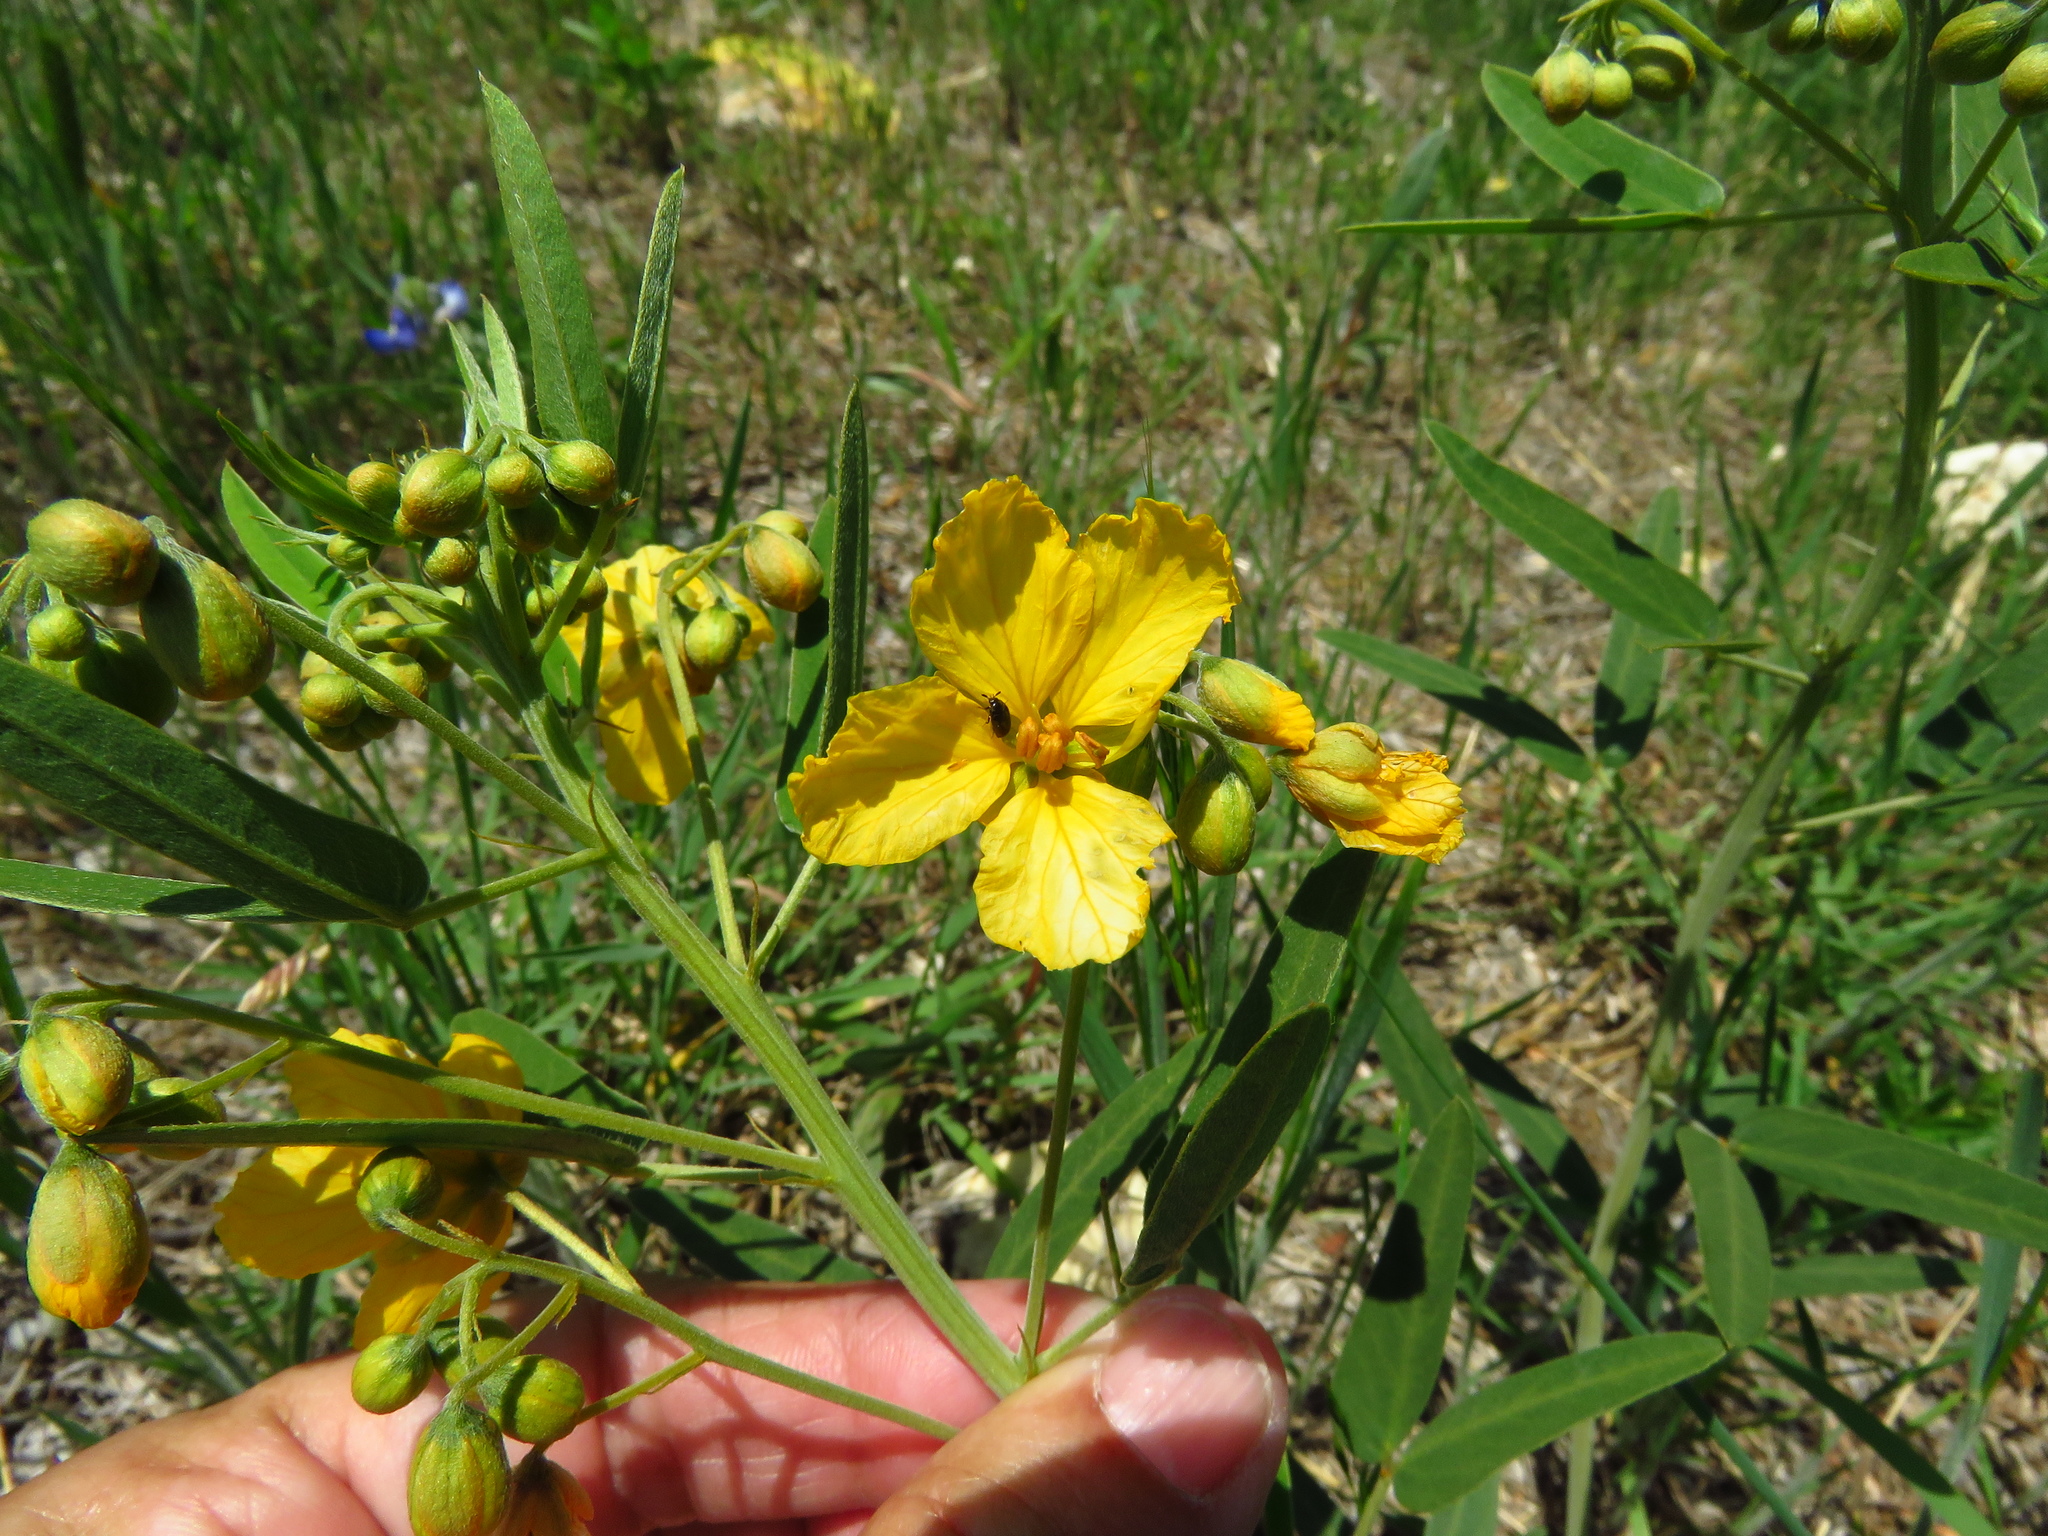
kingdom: Plantae
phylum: Tracheophyta
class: Magnoliopsida
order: Fabales
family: Fabaceae
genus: Senna
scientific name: Senna roemeriana
